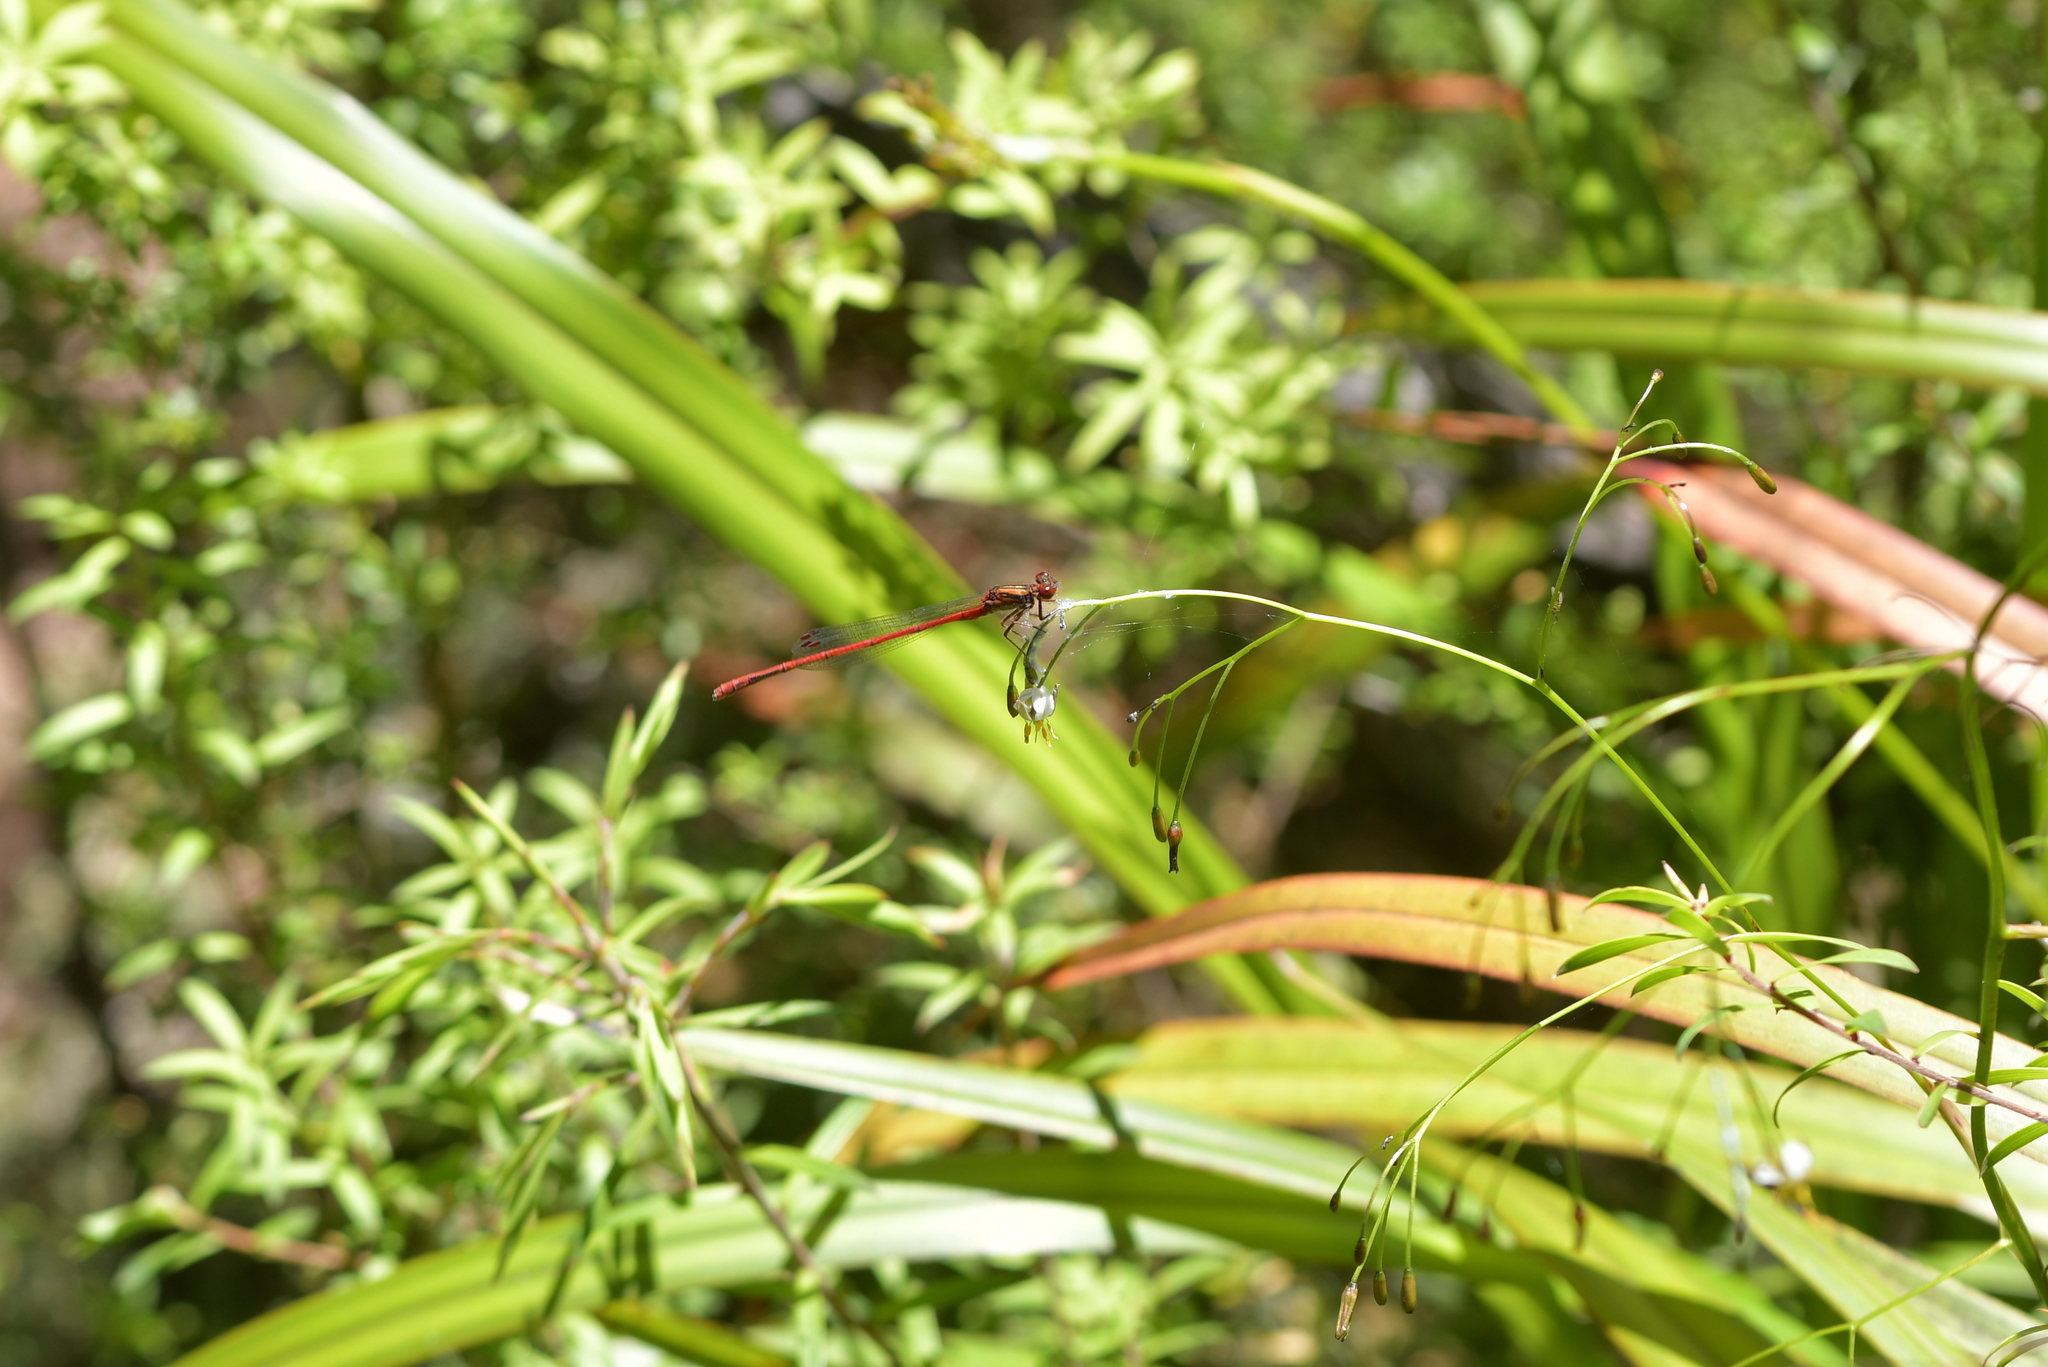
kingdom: Animalia
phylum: Arthropoda
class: Insecta
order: Odonata
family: Coenagrionidae
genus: Xanthocnemis
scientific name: Xanthocnemis zealandica
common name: Common redcoat damselfly
